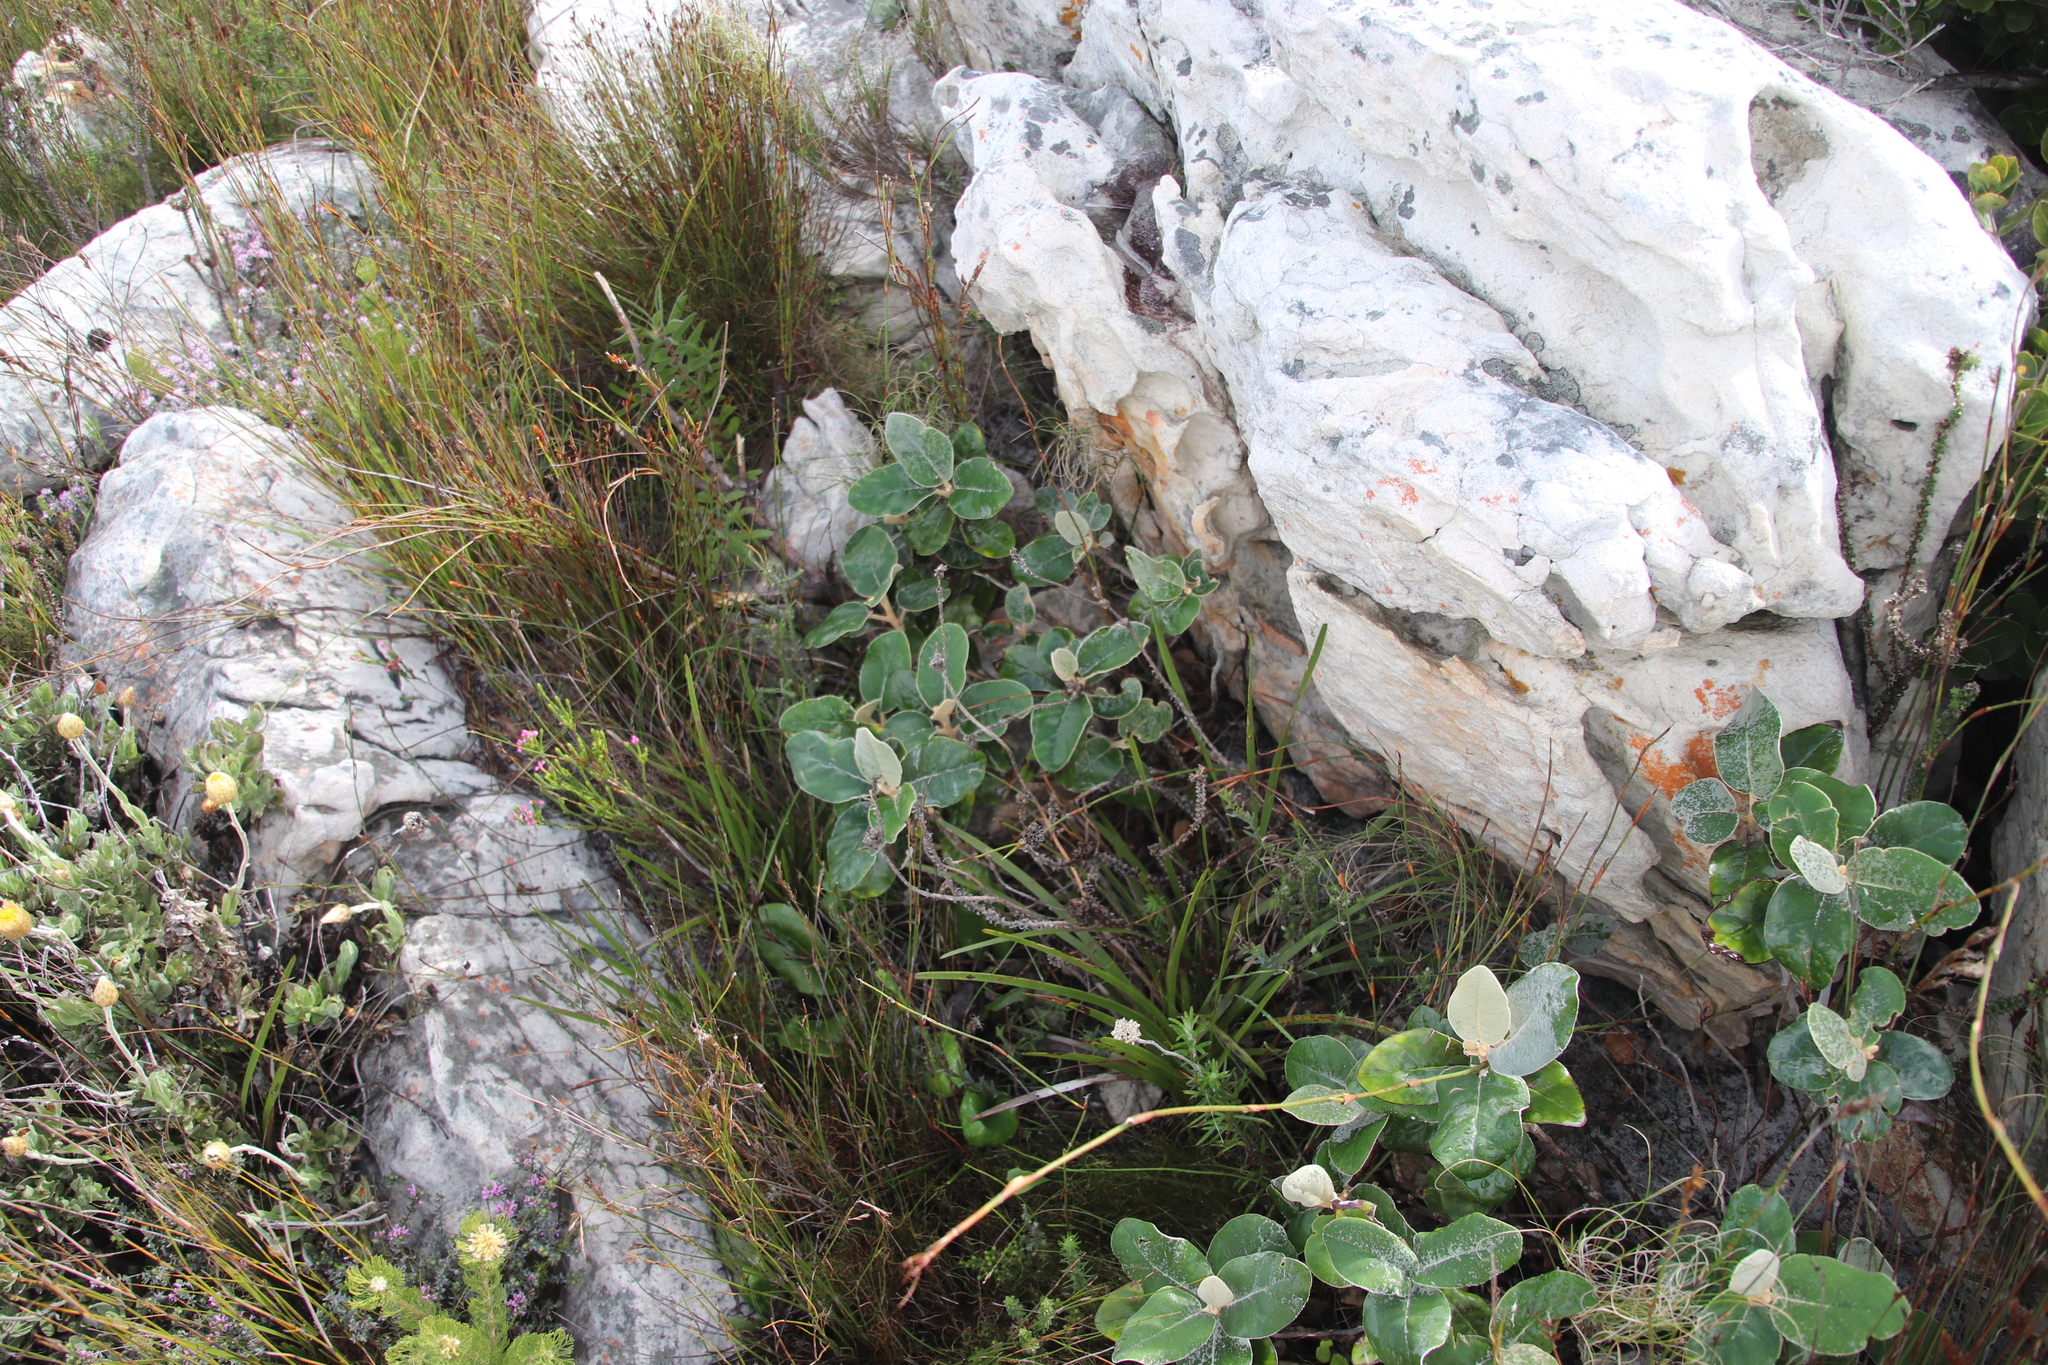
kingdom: Plantae
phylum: Tracheophyta
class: Magnoliopsida
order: Asterales
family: Asteraceae
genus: Capelio
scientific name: Capelio tabularis
